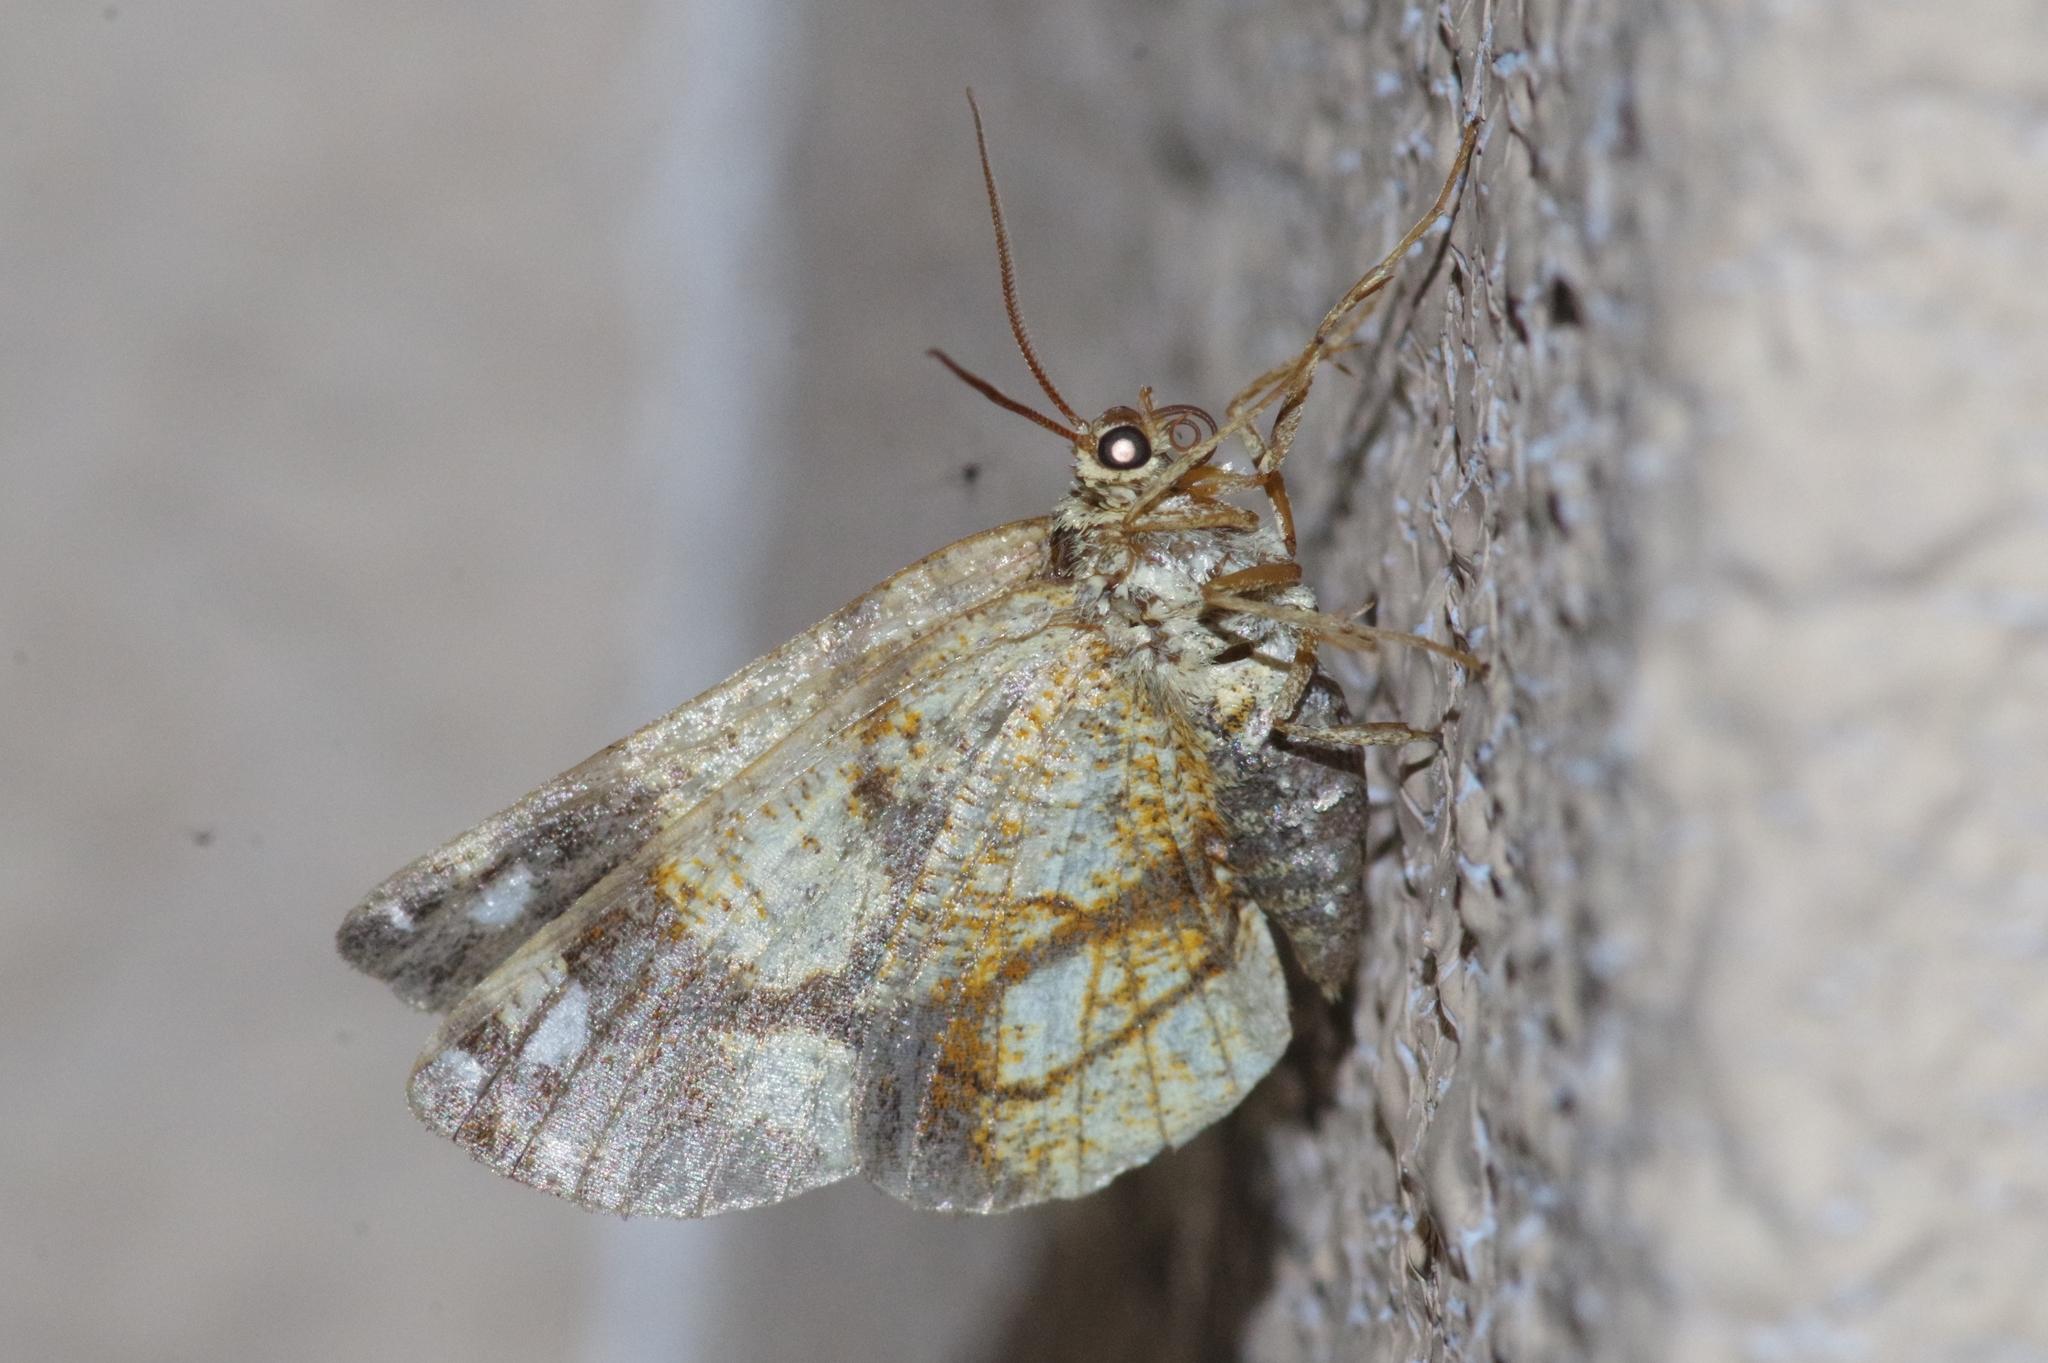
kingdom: Animalia
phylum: Arthropoda
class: Insecta
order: Lepidoptera
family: Geometridae
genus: Epholca
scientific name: Epholca arenosa
